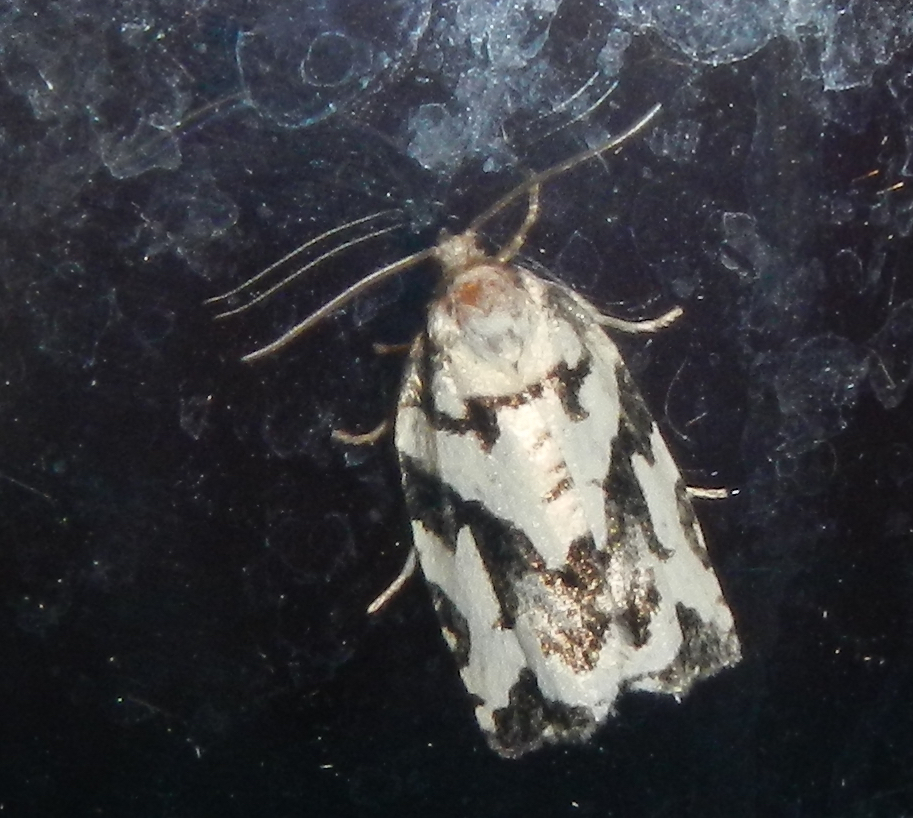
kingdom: Animalia
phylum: Arthropoda
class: Insecta
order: Lepidoptera
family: Tortricidae
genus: Archips
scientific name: Archips dissitana
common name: Boldly-marked archips moth
